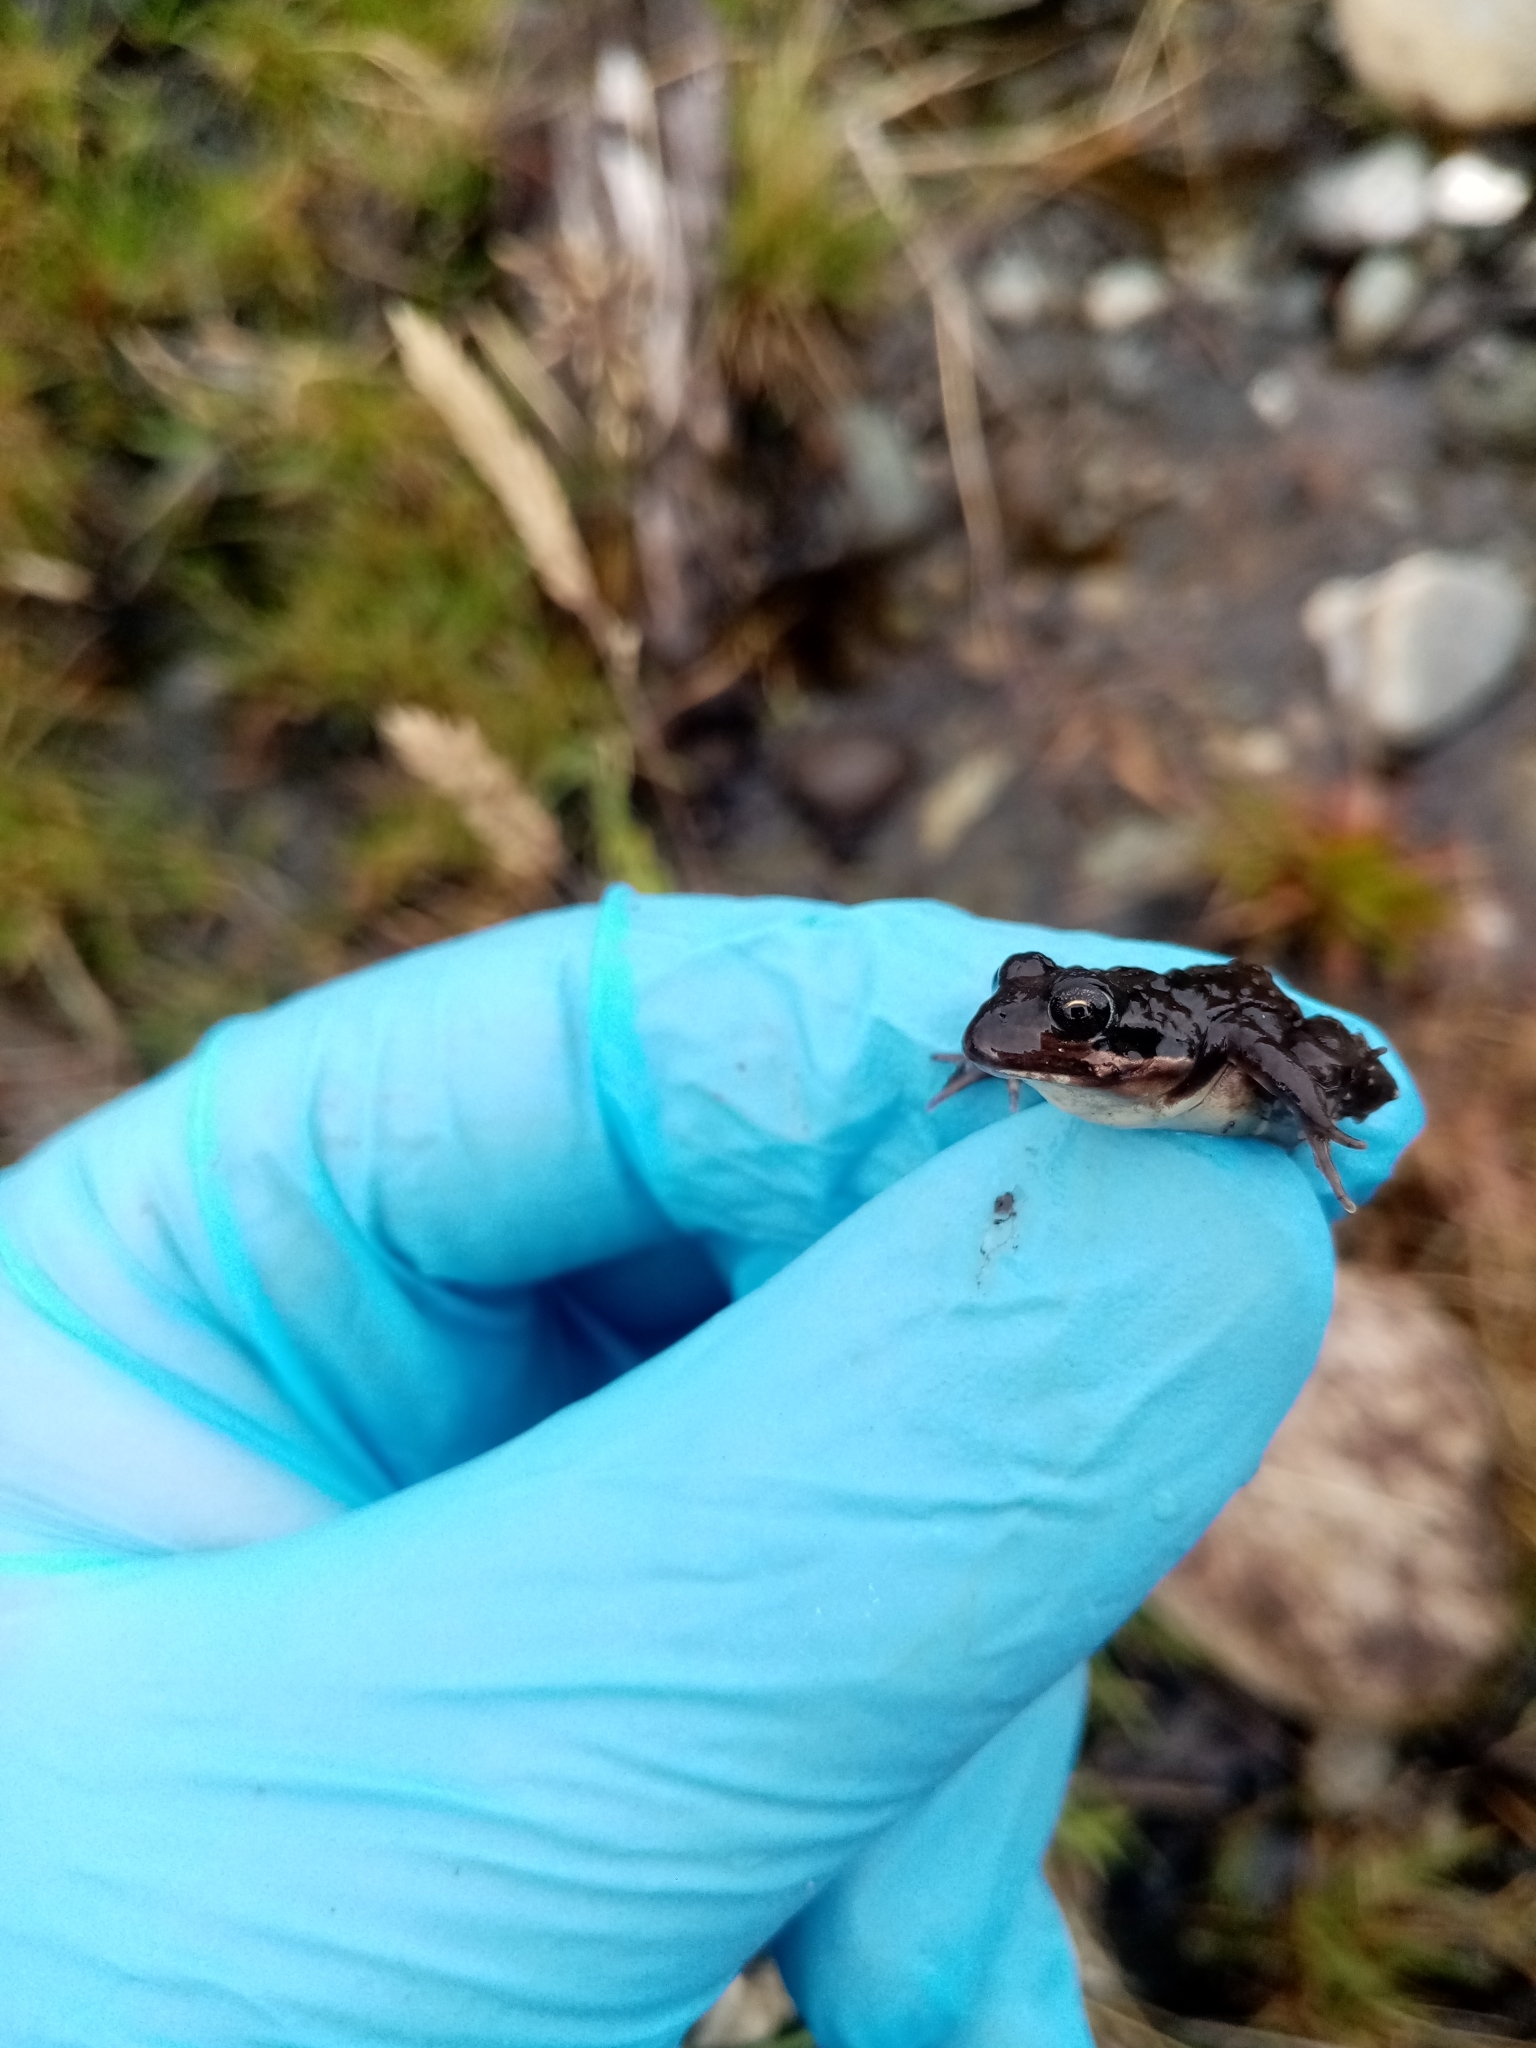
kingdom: Animalia
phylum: Chordata
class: Amphibia
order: Anura
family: Leptodactylidae
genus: Pleurodema
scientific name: Pleurodema thaul
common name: Chile four-eyed frog
